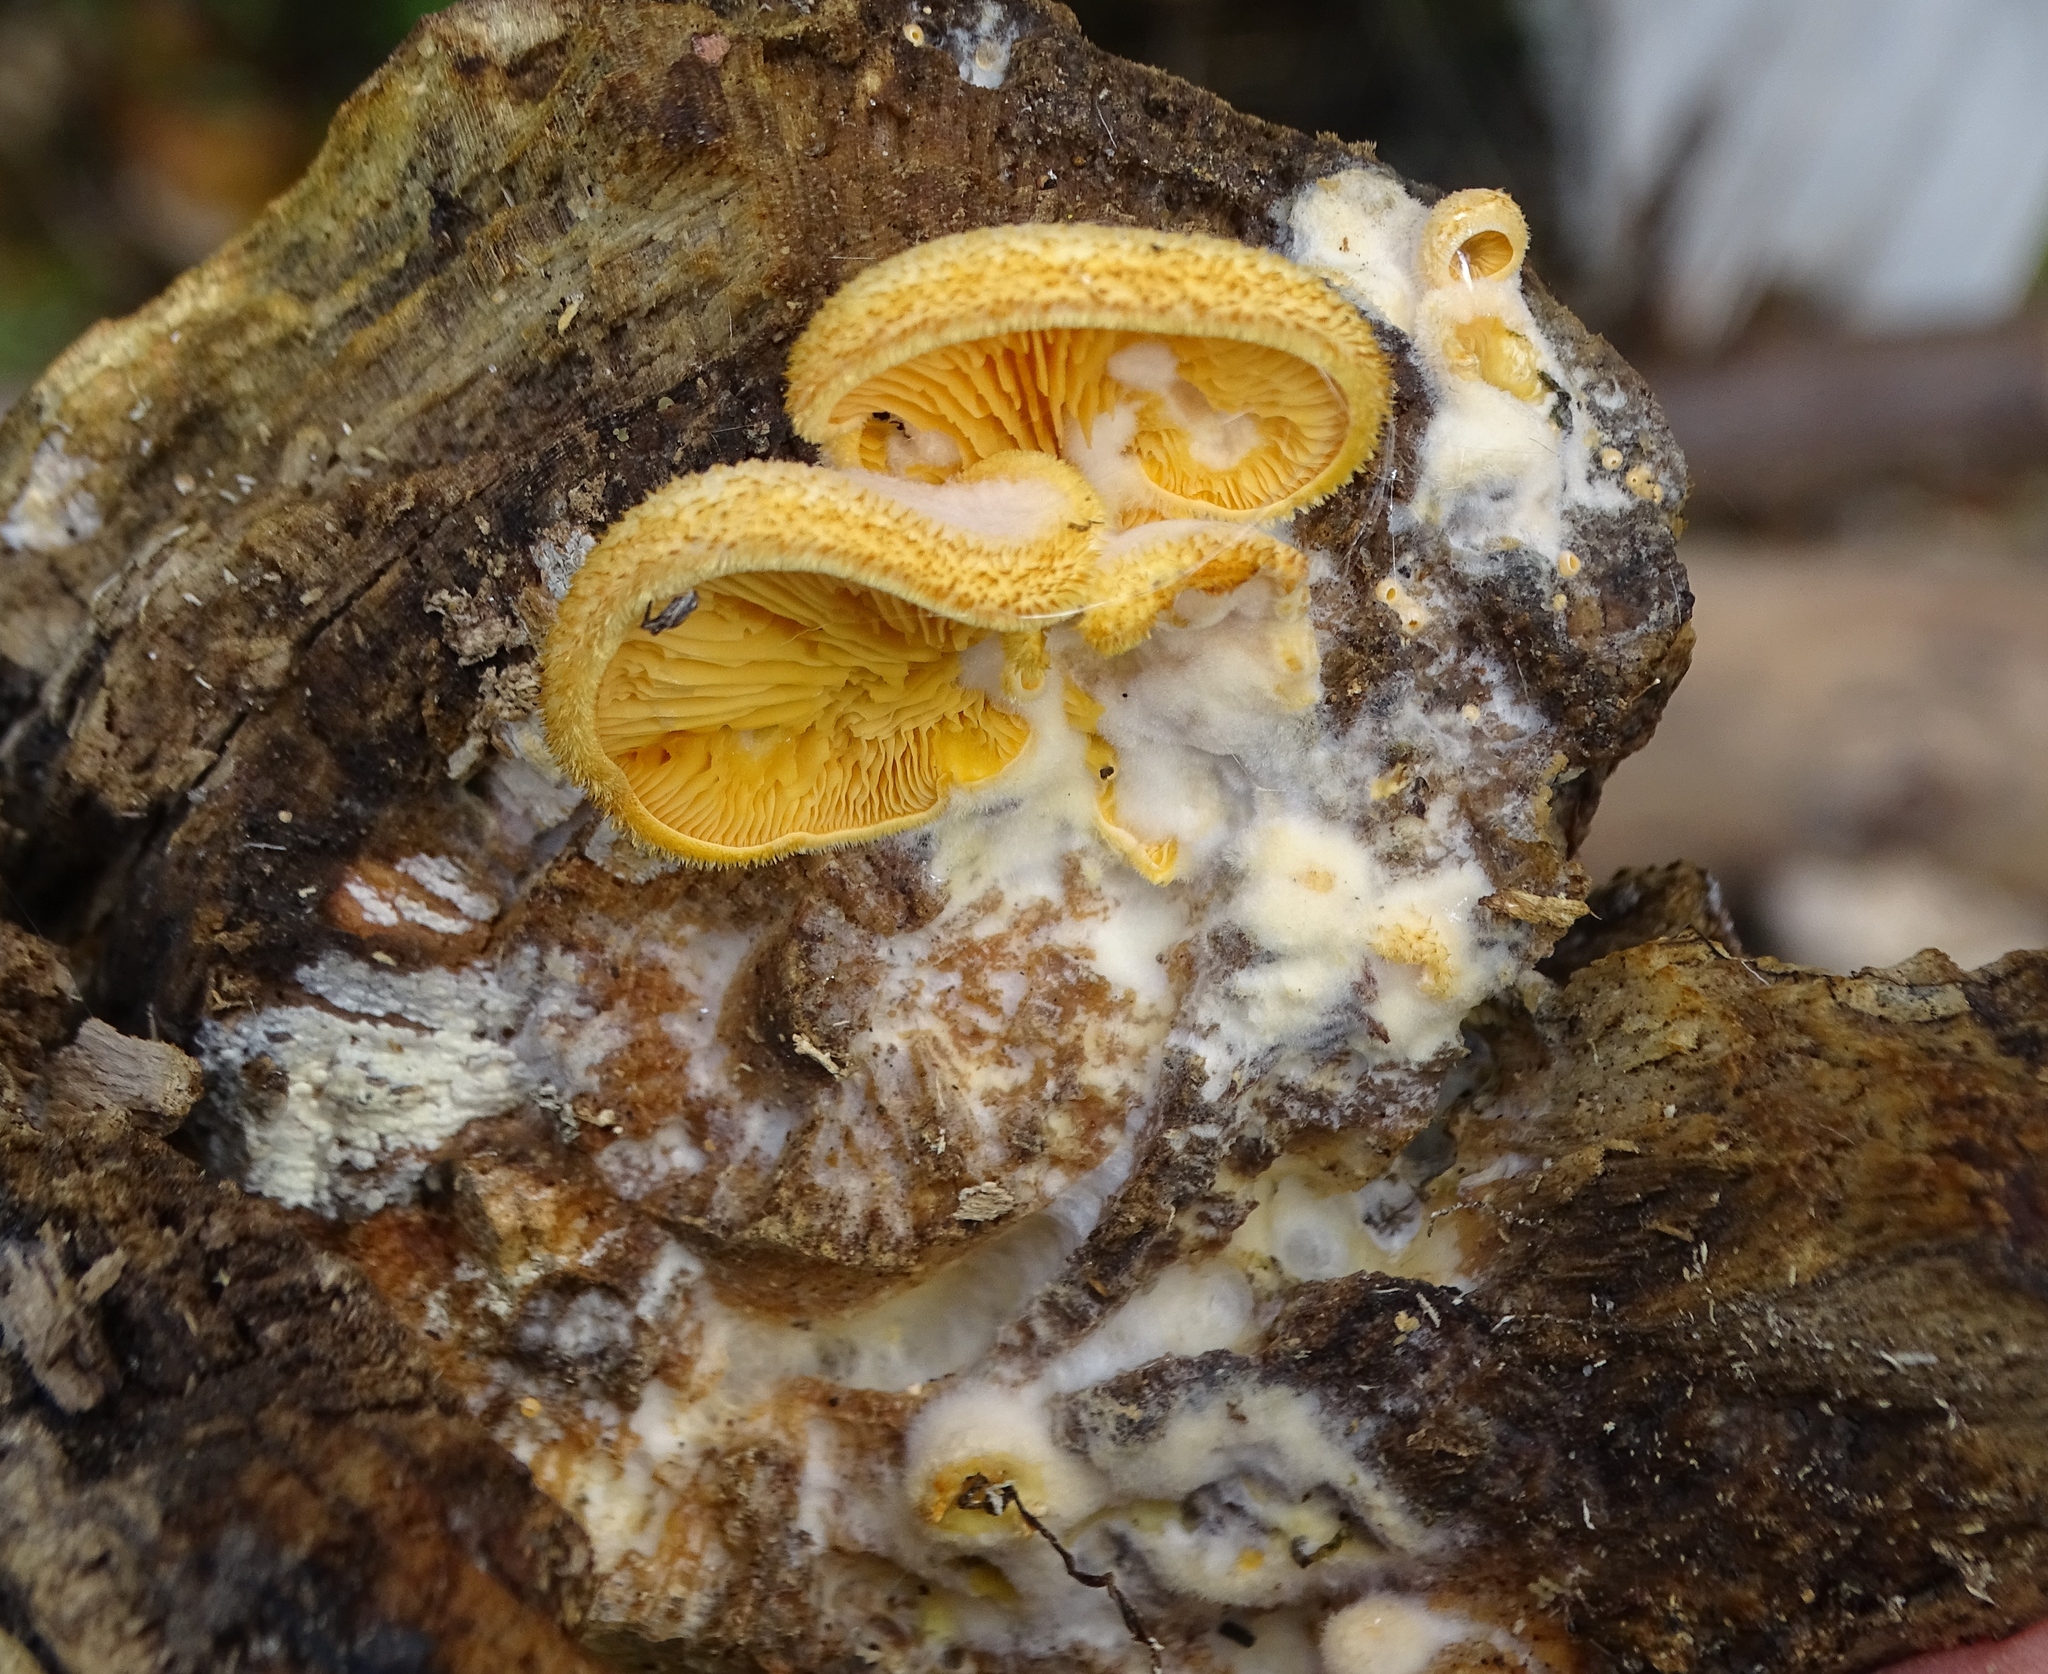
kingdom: Fungi
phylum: Basidiomycota
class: Agaricomycetes
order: Agaricales
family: Phyllotopsidaceae
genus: Phyllotopsis
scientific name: Phyllotopsis nidulans
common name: Orange mock oyster
